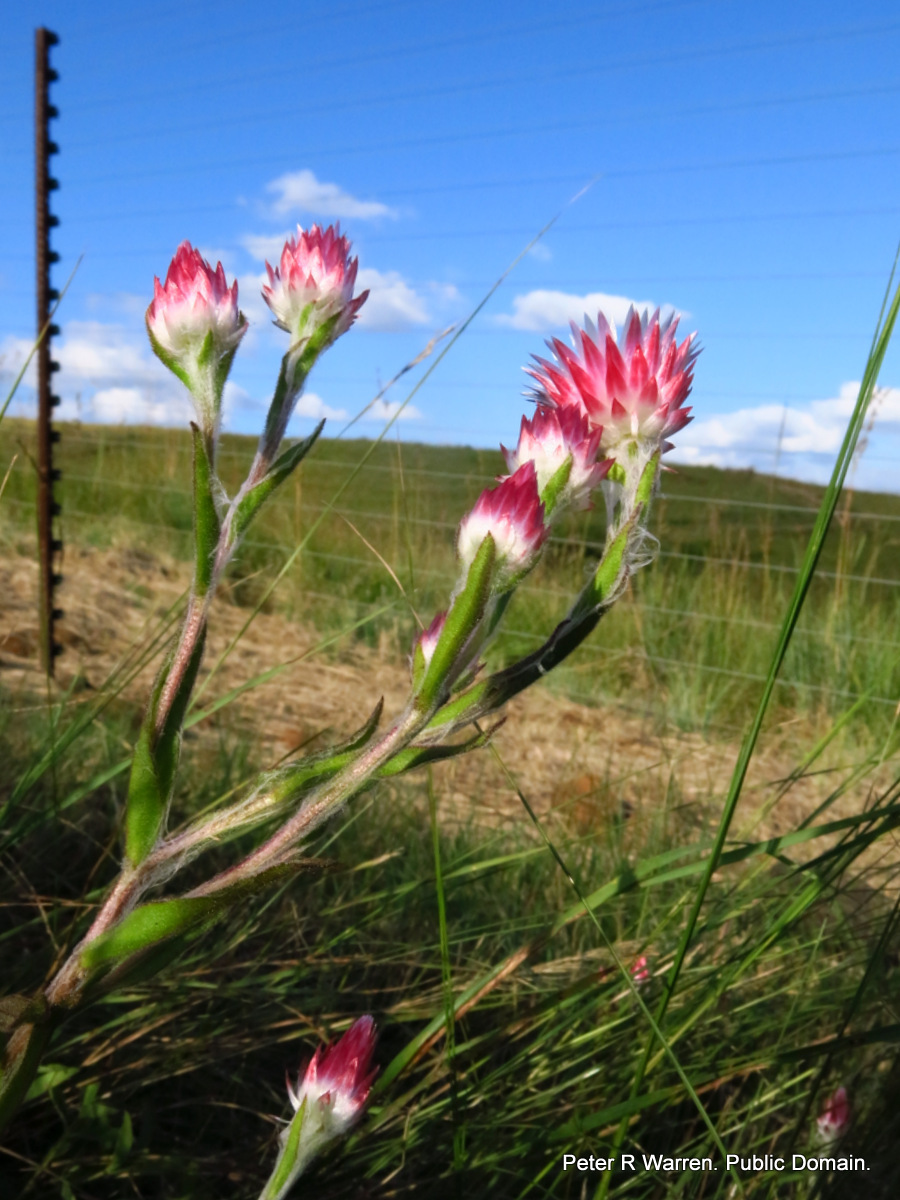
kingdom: Plantae
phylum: Tracheophyta
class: Magnoliopsida
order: Asterales
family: Asteraceae
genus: Helichrysum
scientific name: Helichrysum adenocarpum
